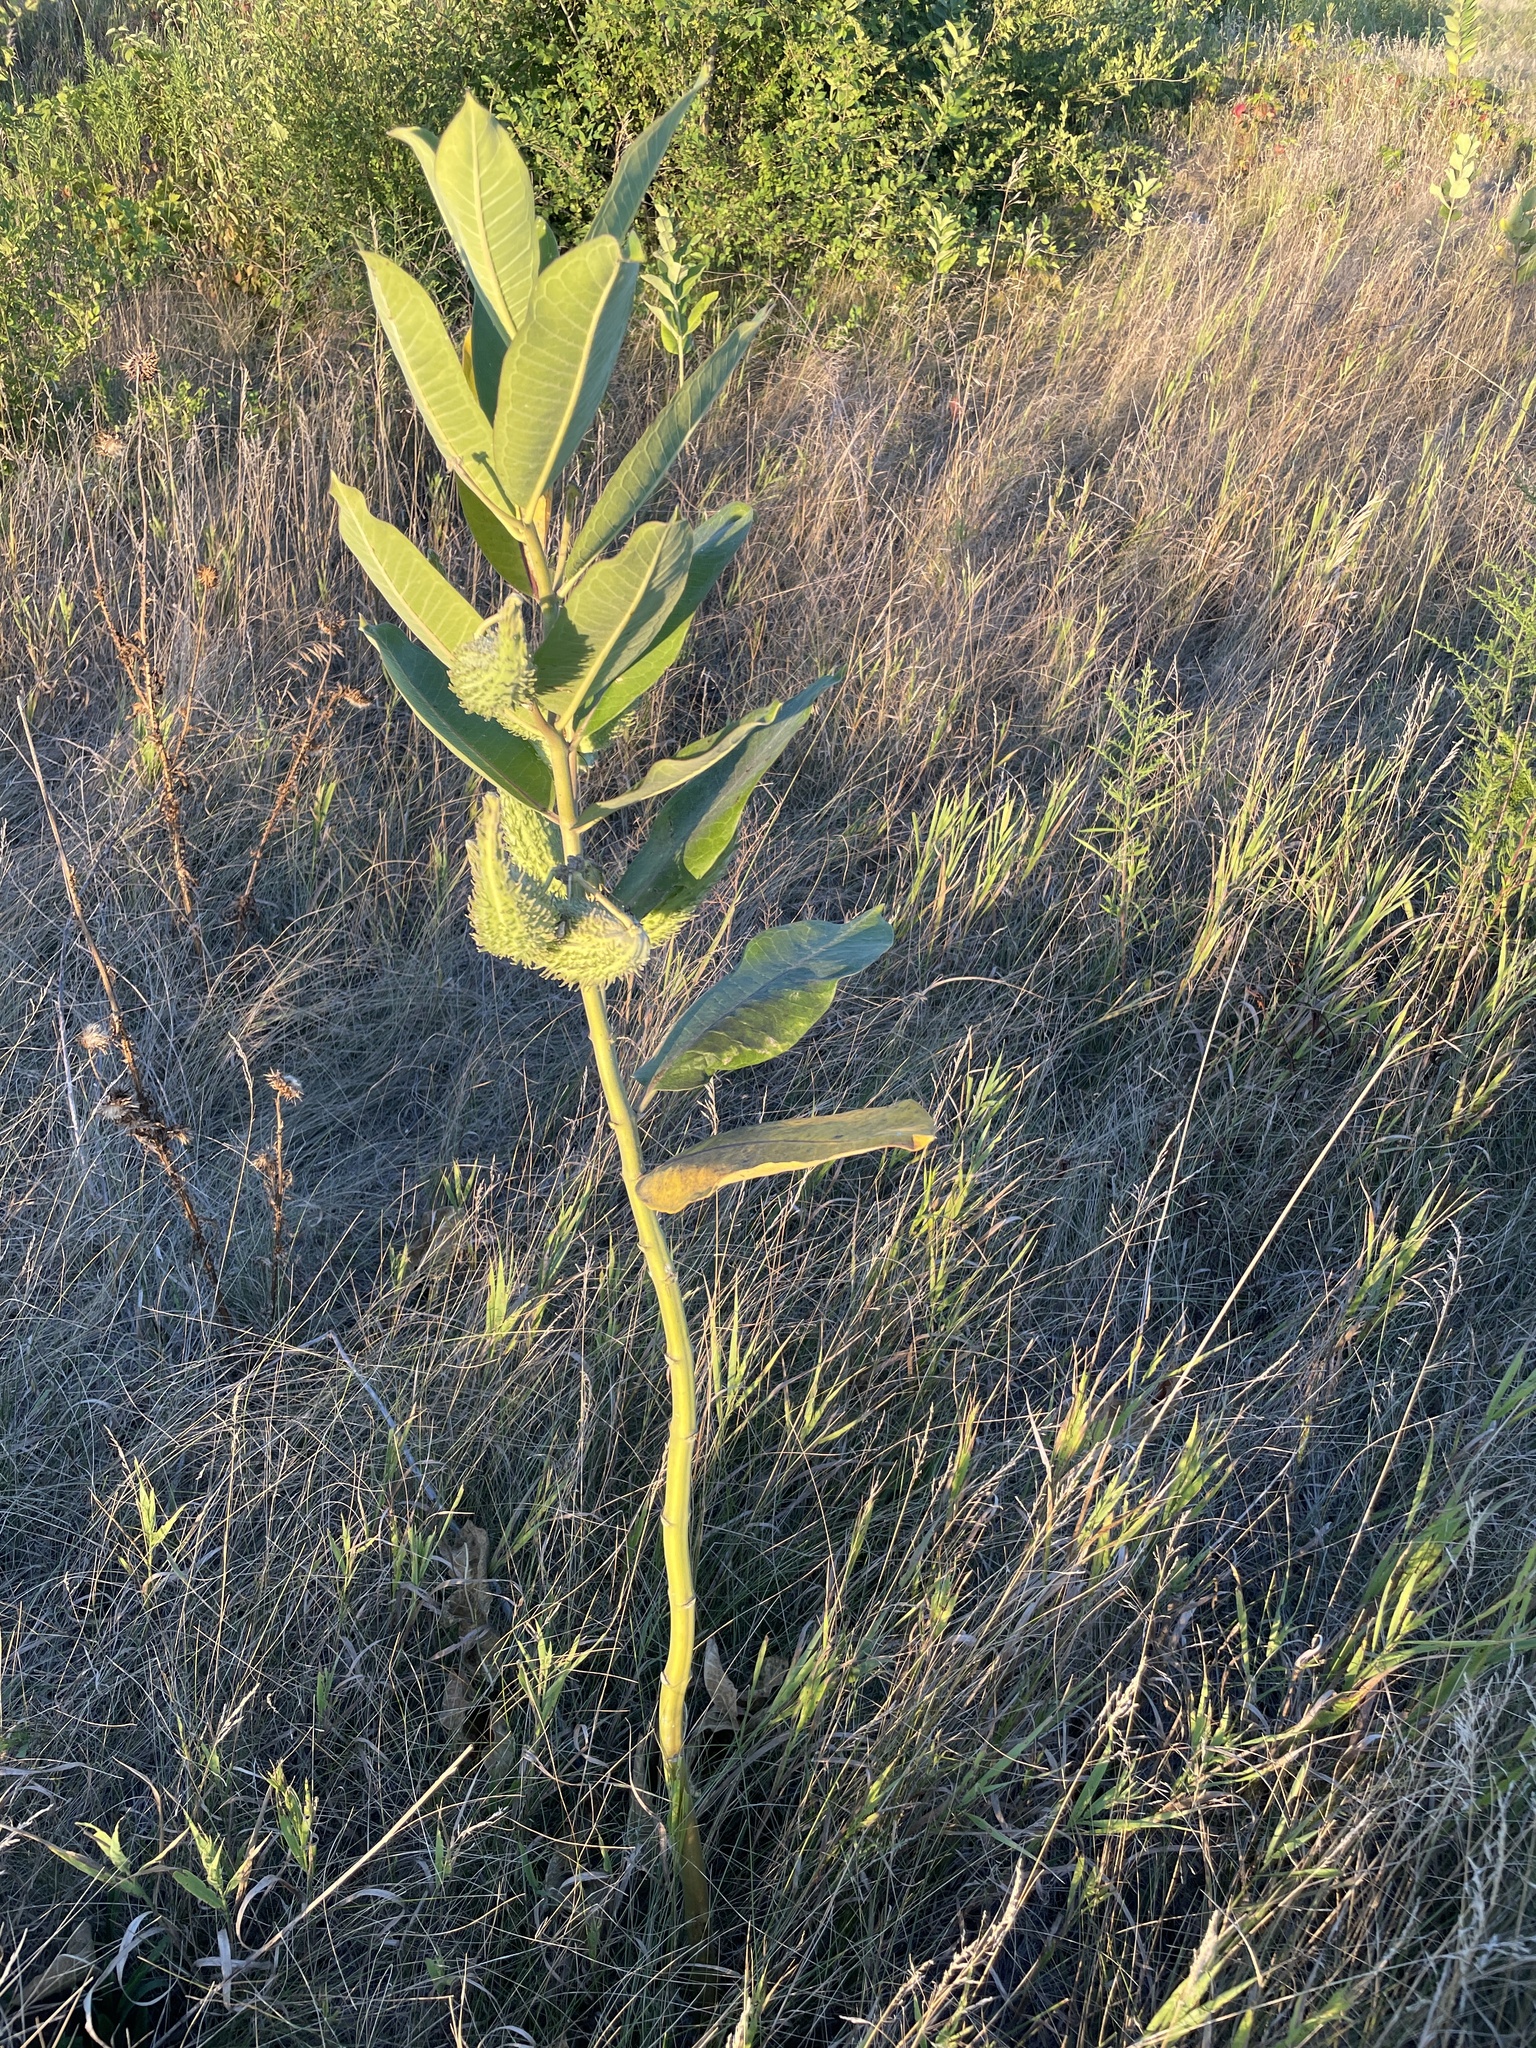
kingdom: Plantae
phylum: Tracheophyta
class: Magnoliopsida
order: Gentianales
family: Apocynaceae
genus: Asclepias
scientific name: Asclepias syriaca
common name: Common milkweed
